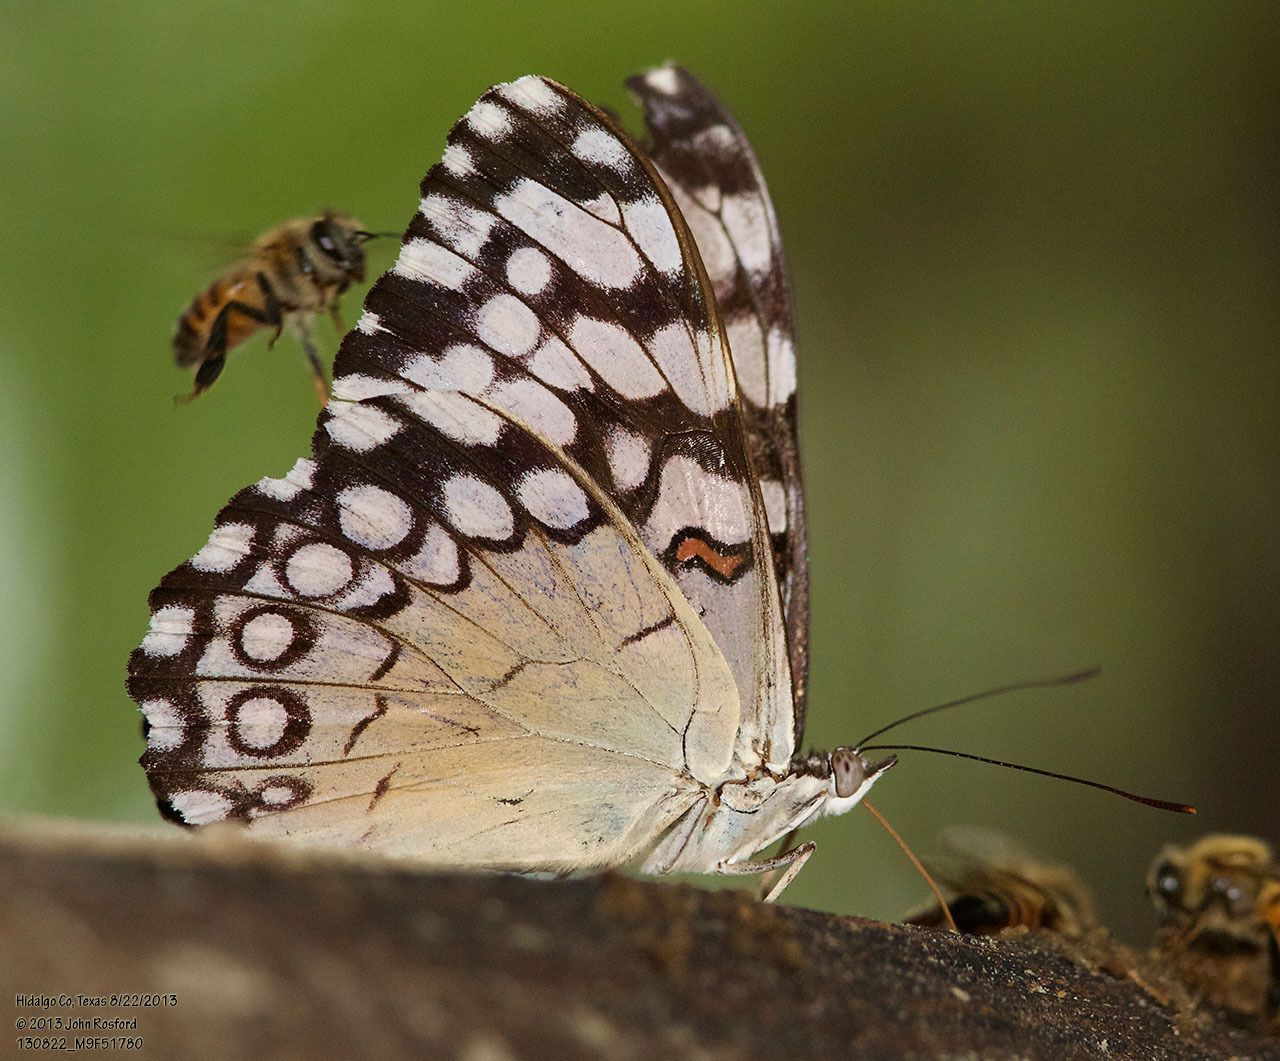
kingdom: Animalia
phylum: Arthropoda
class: Insecta
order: Lepidoptera
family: Nymphalidae
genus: Hamadryas
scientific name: Hamadryas guatemalena
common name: Guatemalan cracker
